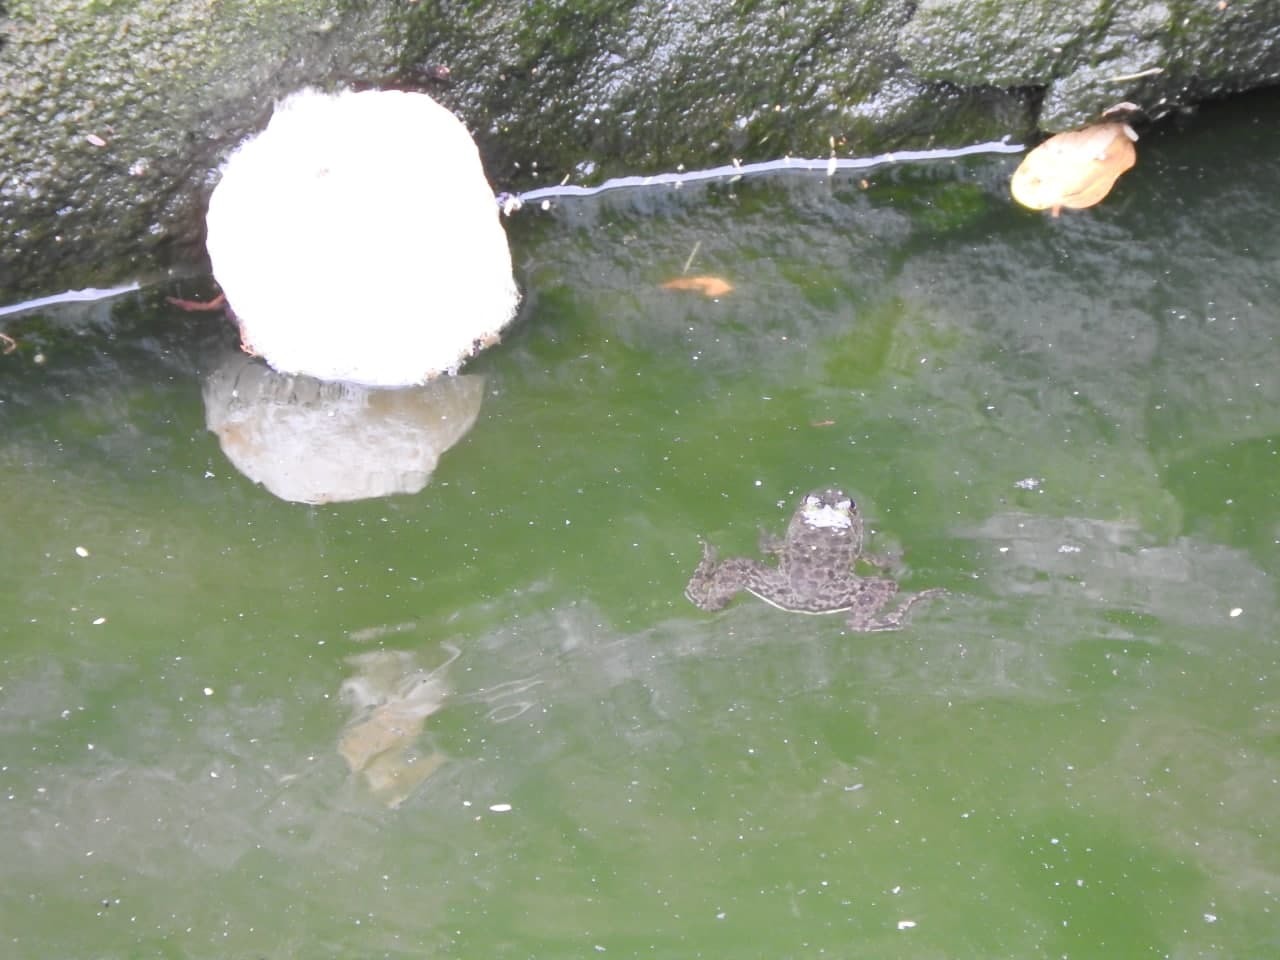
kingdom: Animalia
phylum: Chordata
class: Amphibia
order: Anura
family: Dicroglossidae
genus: Euphlyctis
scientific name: Euphlyctis cyanophlyctis
